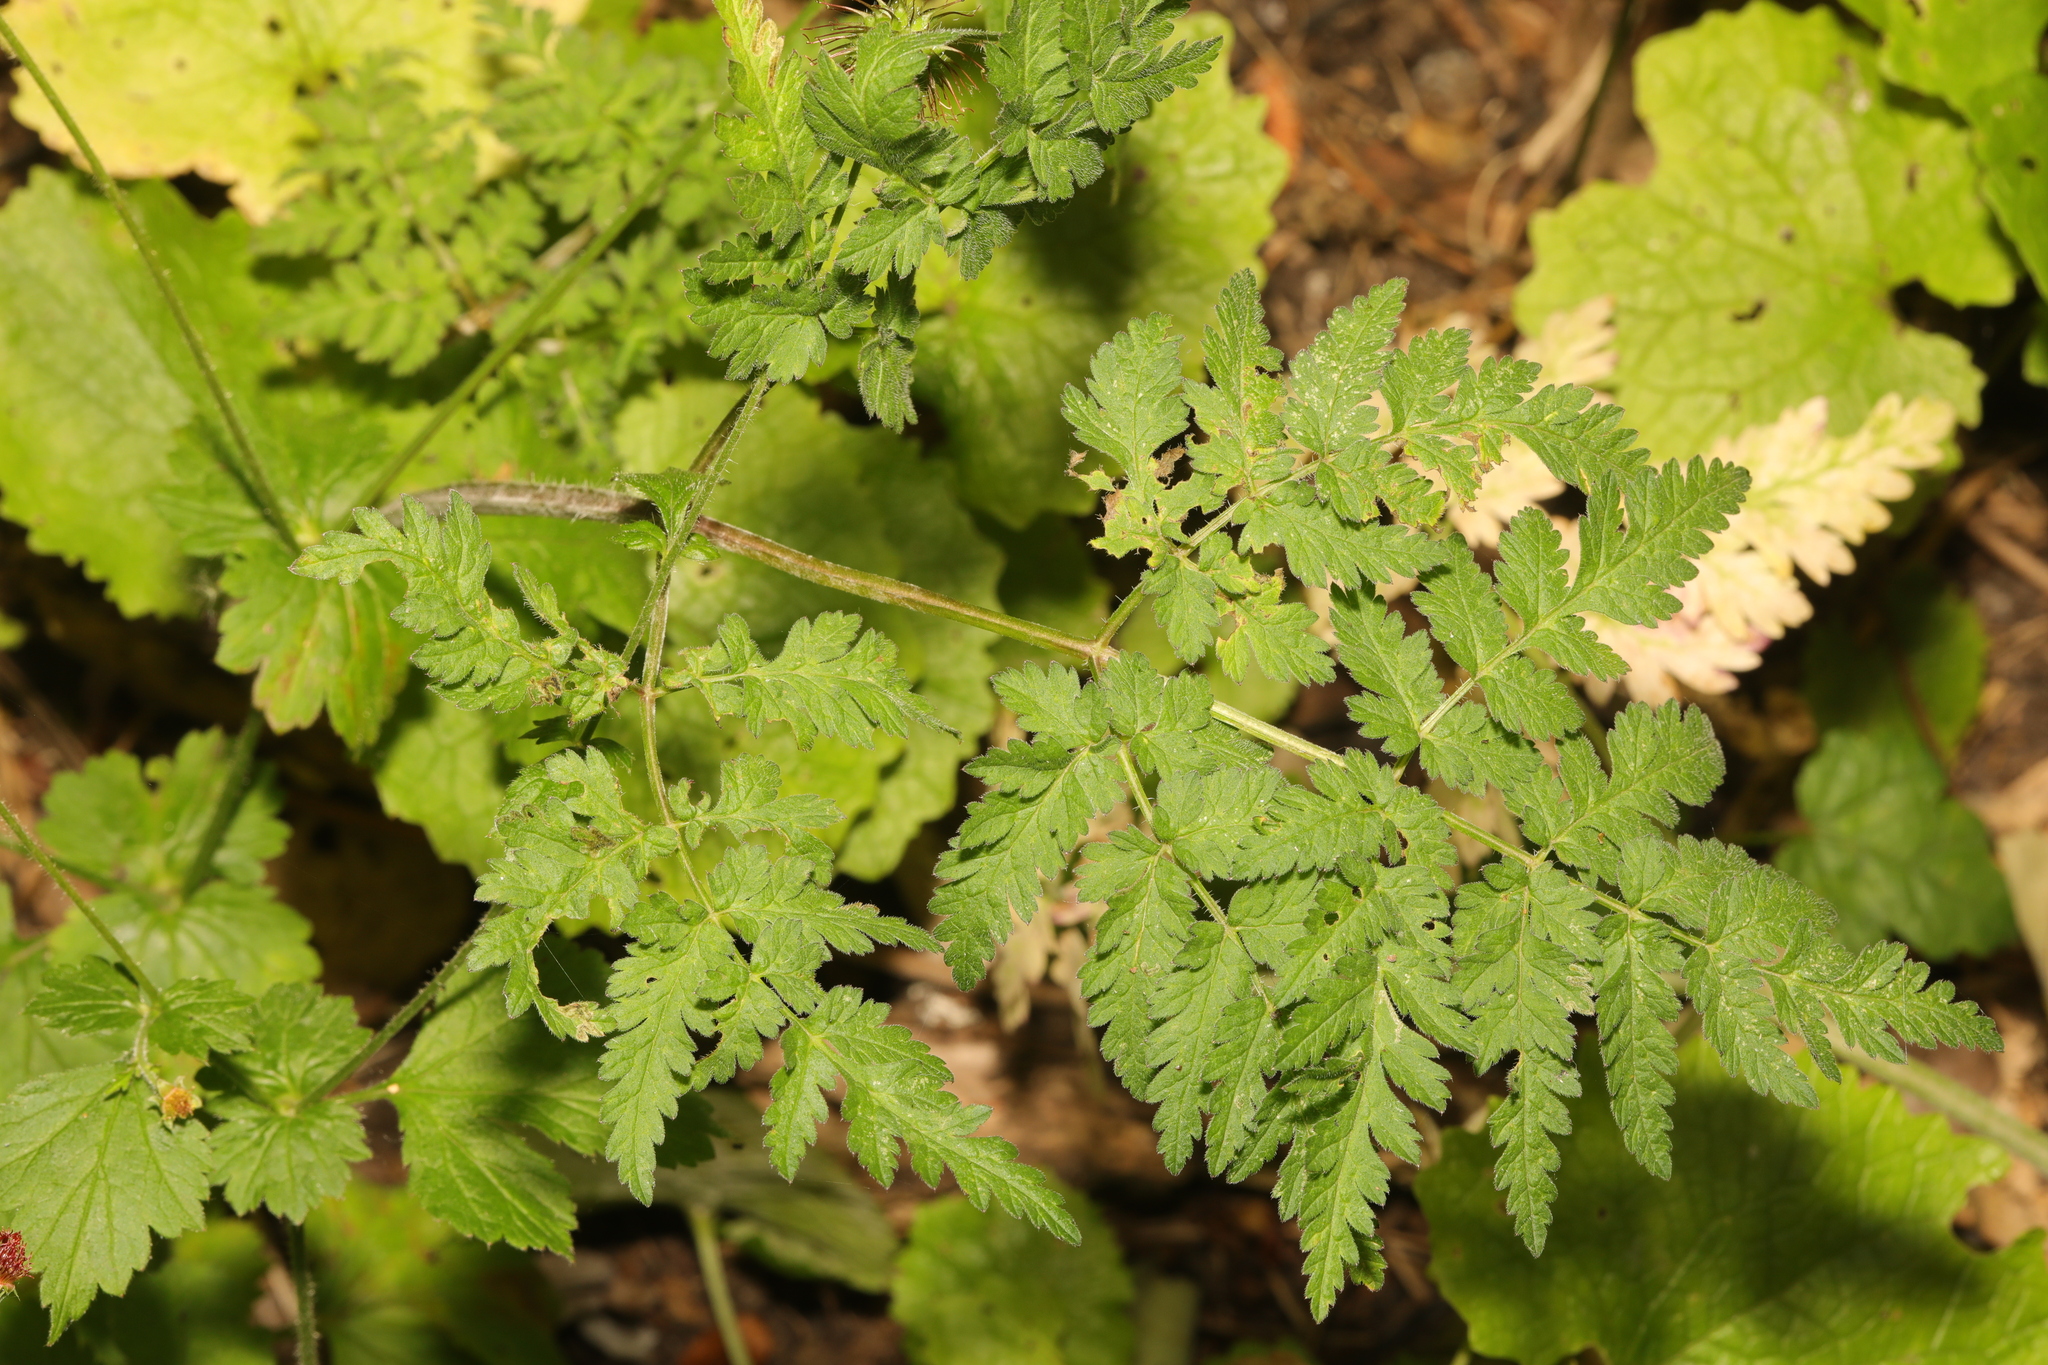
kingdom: Plantae
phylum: Tracheophyta
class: Magnoliopsida
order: Apiales
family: Apiaceae
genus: Anthriscus
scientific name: Anthriscus sylvestris
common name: Cow parsley
